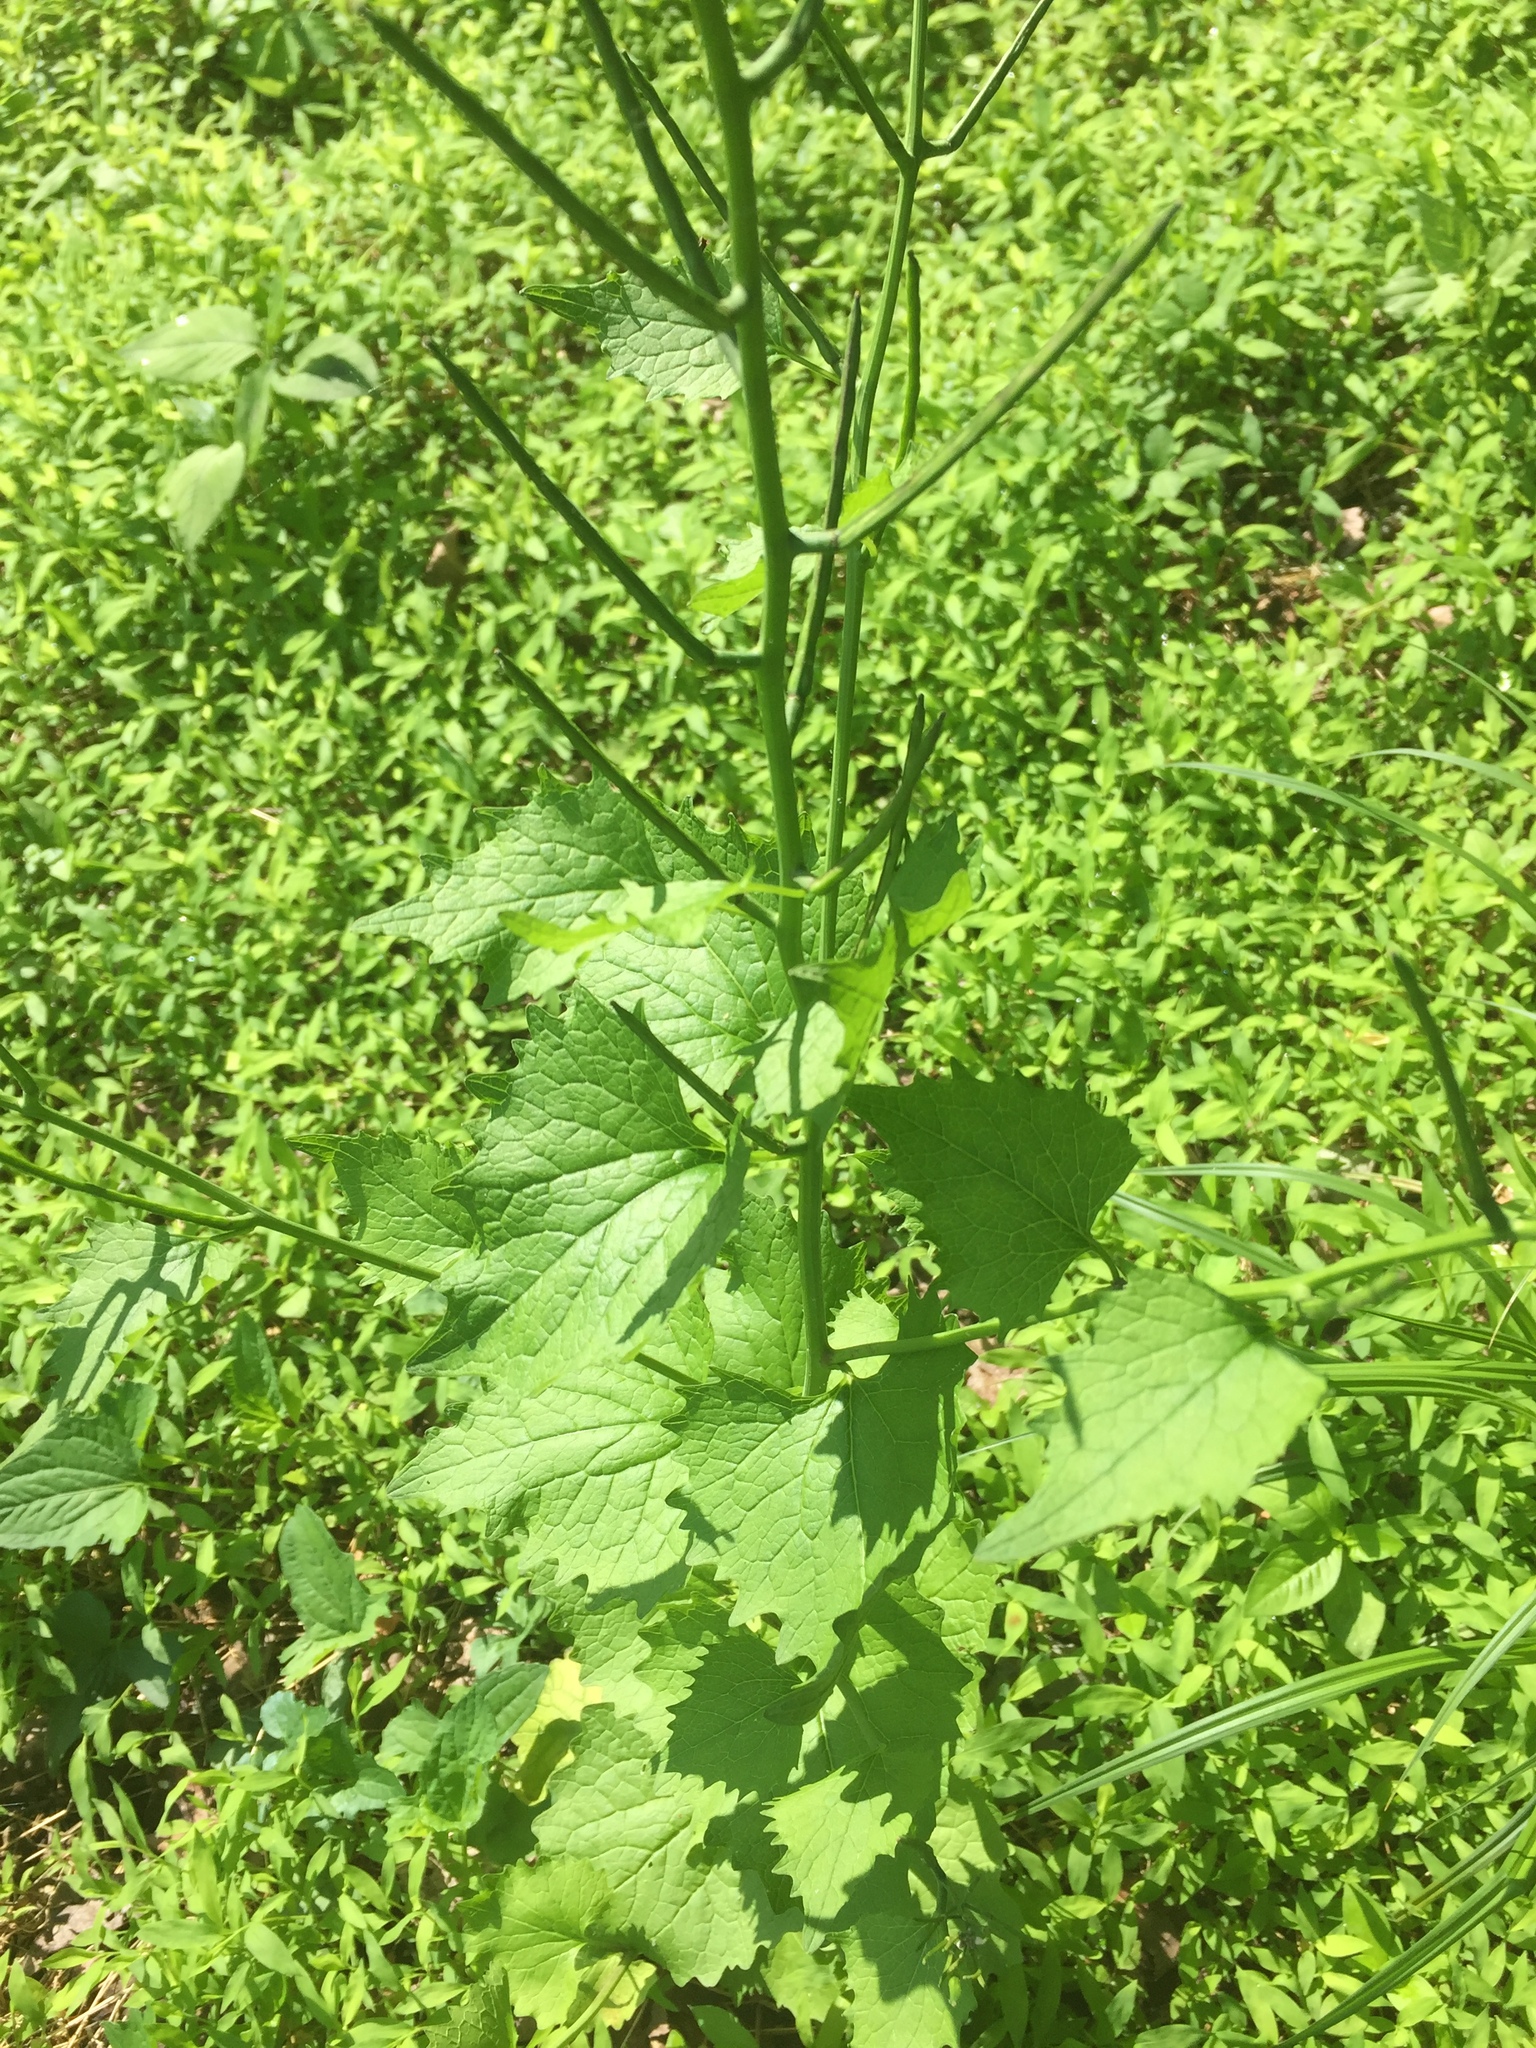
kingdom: Plantae
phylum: Tracheophyta
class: Magnoliopsida
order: Brassicales
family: Brassicaceae
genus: Alliaria
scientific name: Alliaria petiolata
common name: Garlic mustard
